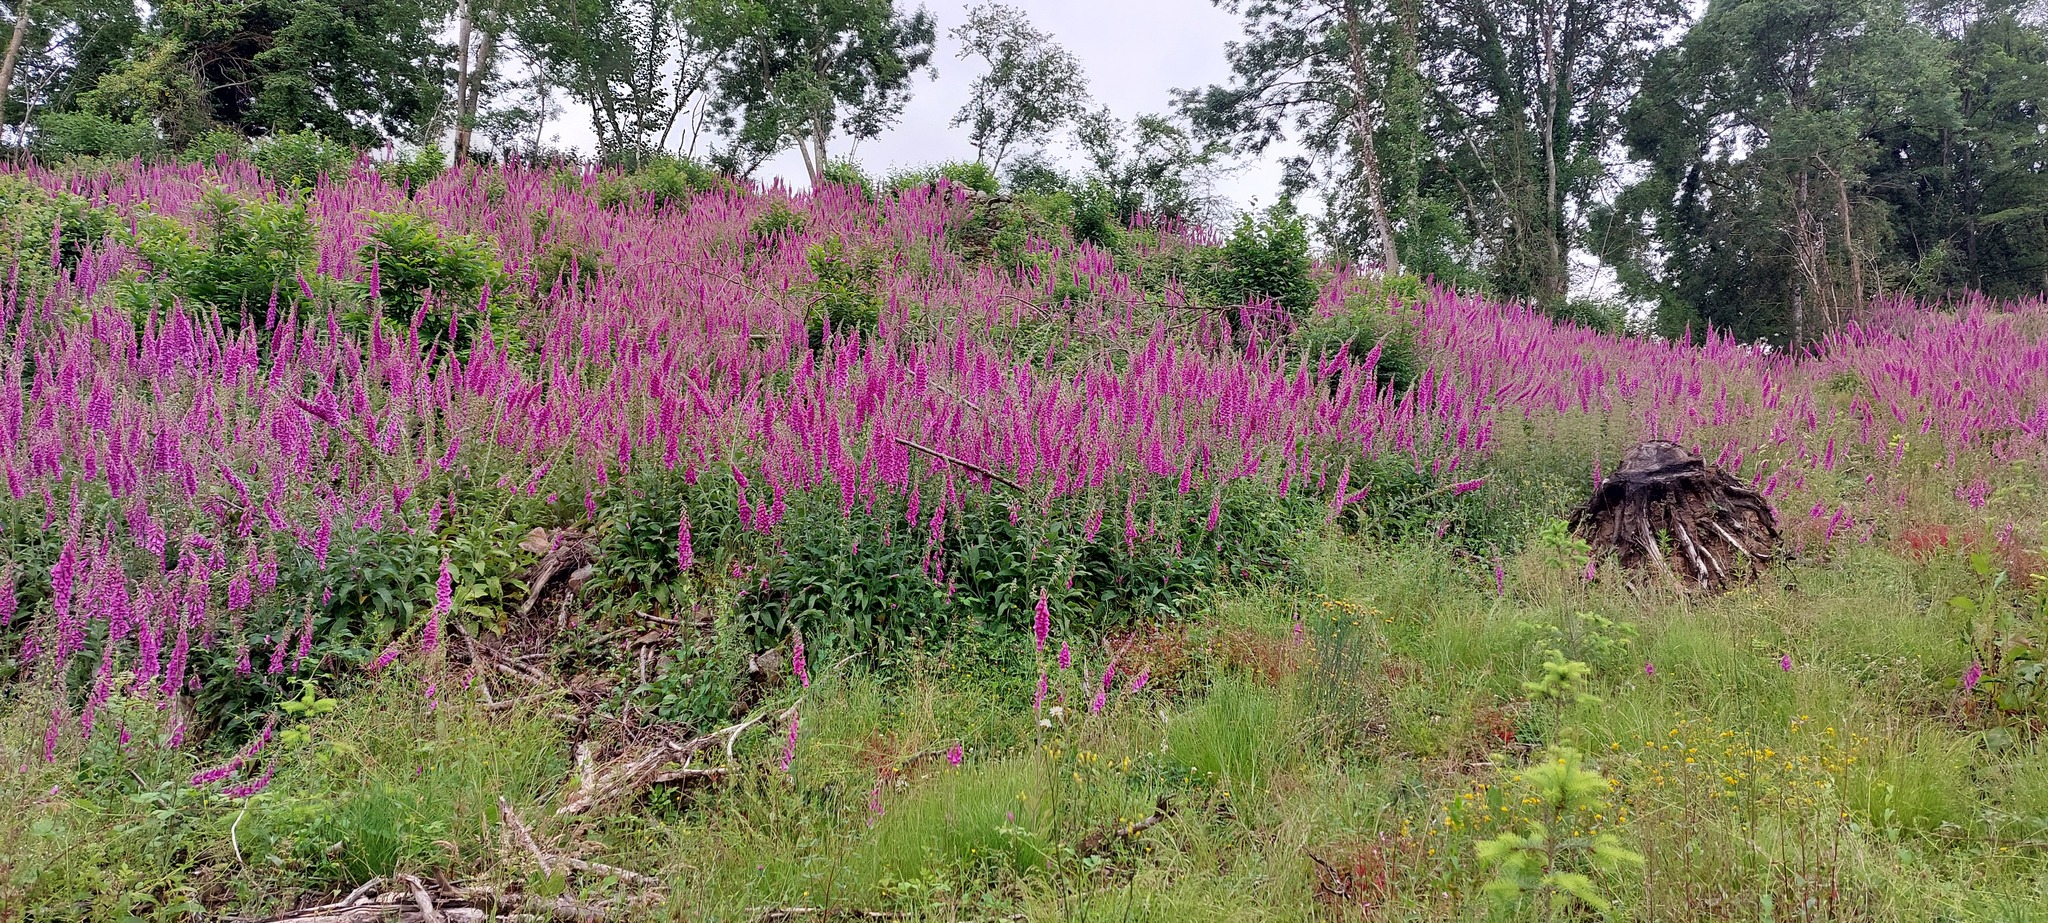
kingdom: Plantae
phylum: Tracheophyta
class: Magnoliopsida
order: Lamiales
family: Plantaginaceae
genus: Digitalis
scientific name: Digitalis purpurea
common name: Foxglove
